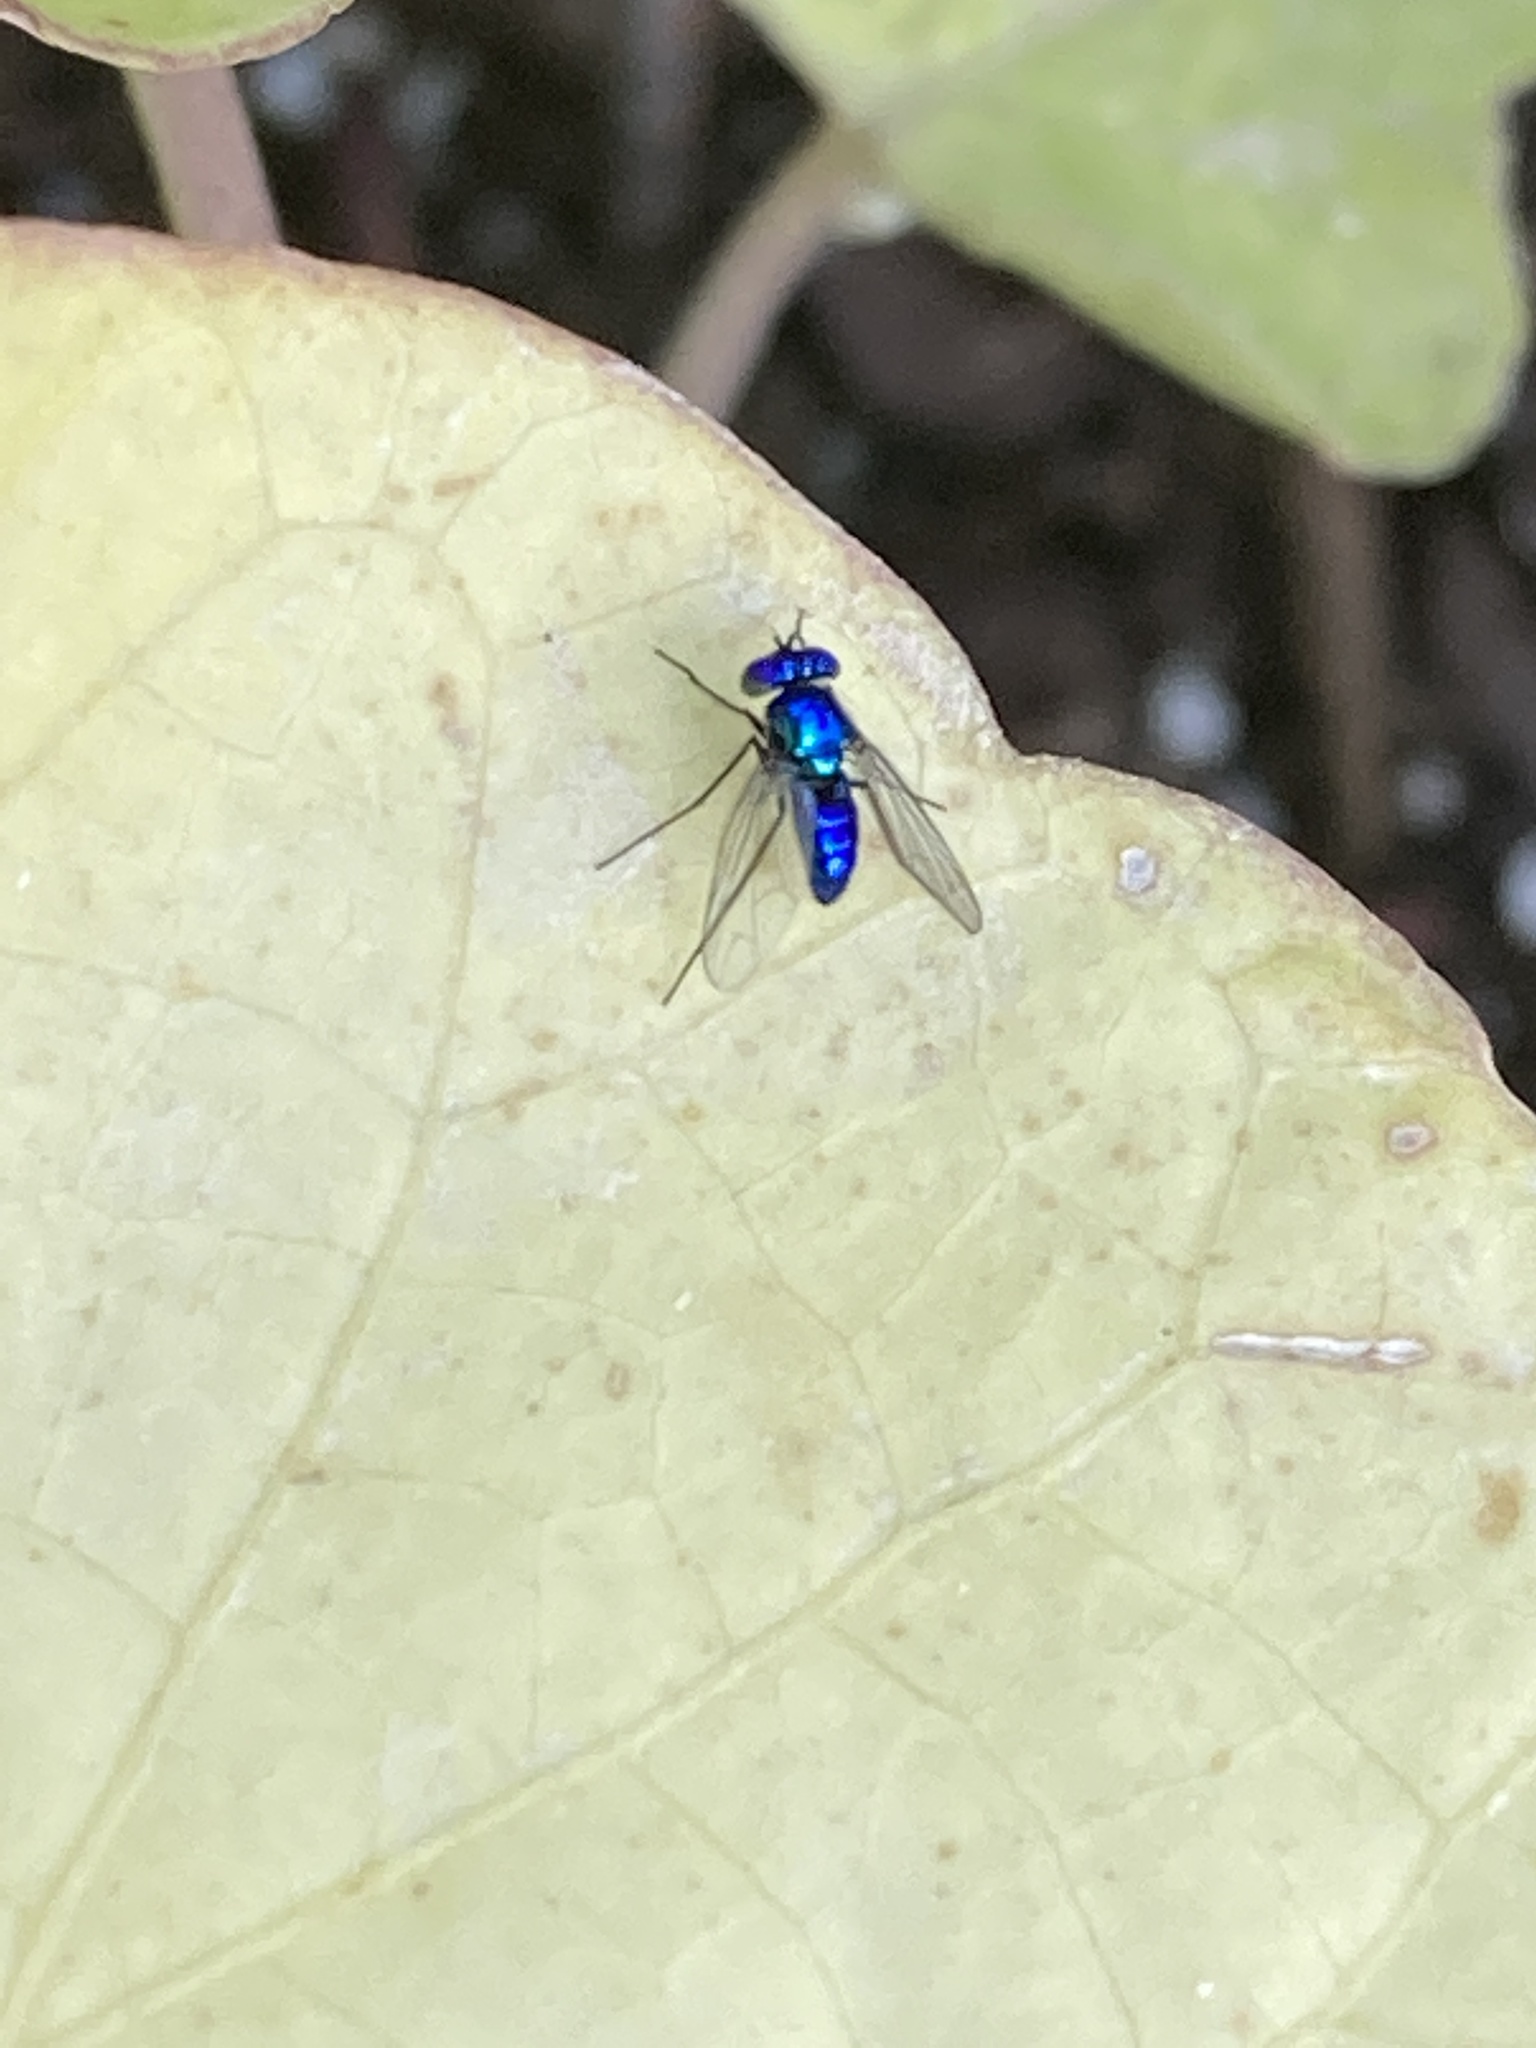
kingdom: Animalia
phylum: Arthropoda
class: Insecta
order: Diptera
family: Dolichopodidae
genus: Condylostylus
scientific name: Condylostylus mundus
